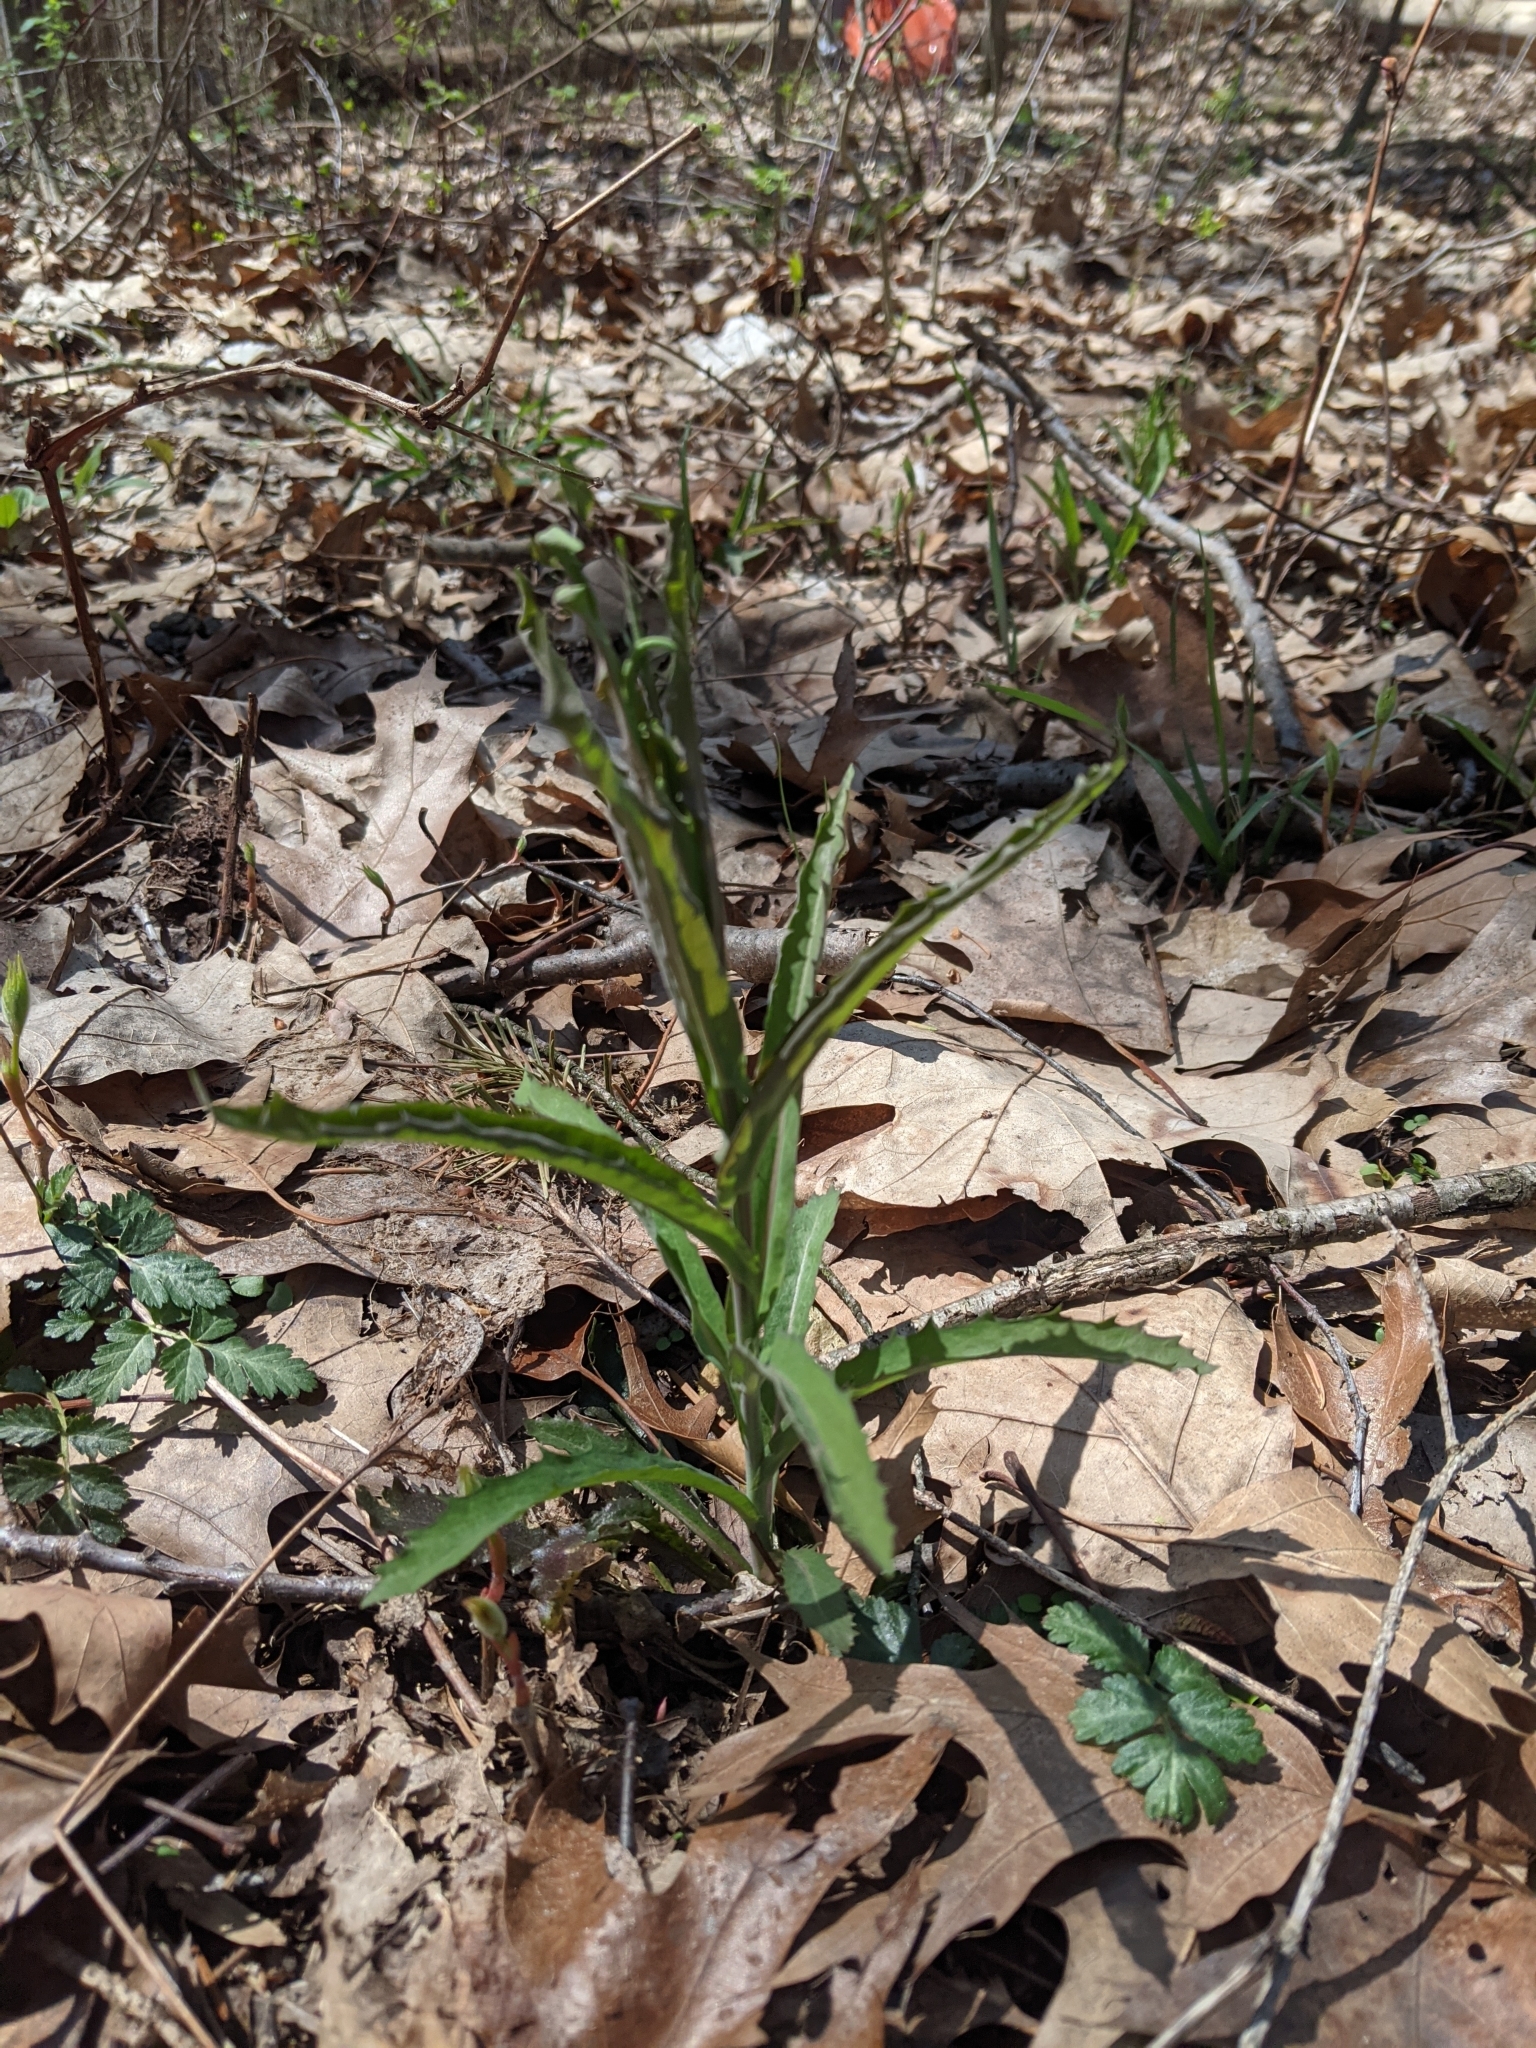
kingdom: Plantae
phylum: Tracheophyta
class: Magnoliopsida
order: Brassicales
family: Brassicaceae
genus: Borodinia
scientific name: Borodinia laevigata
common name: Smooth rockcress
